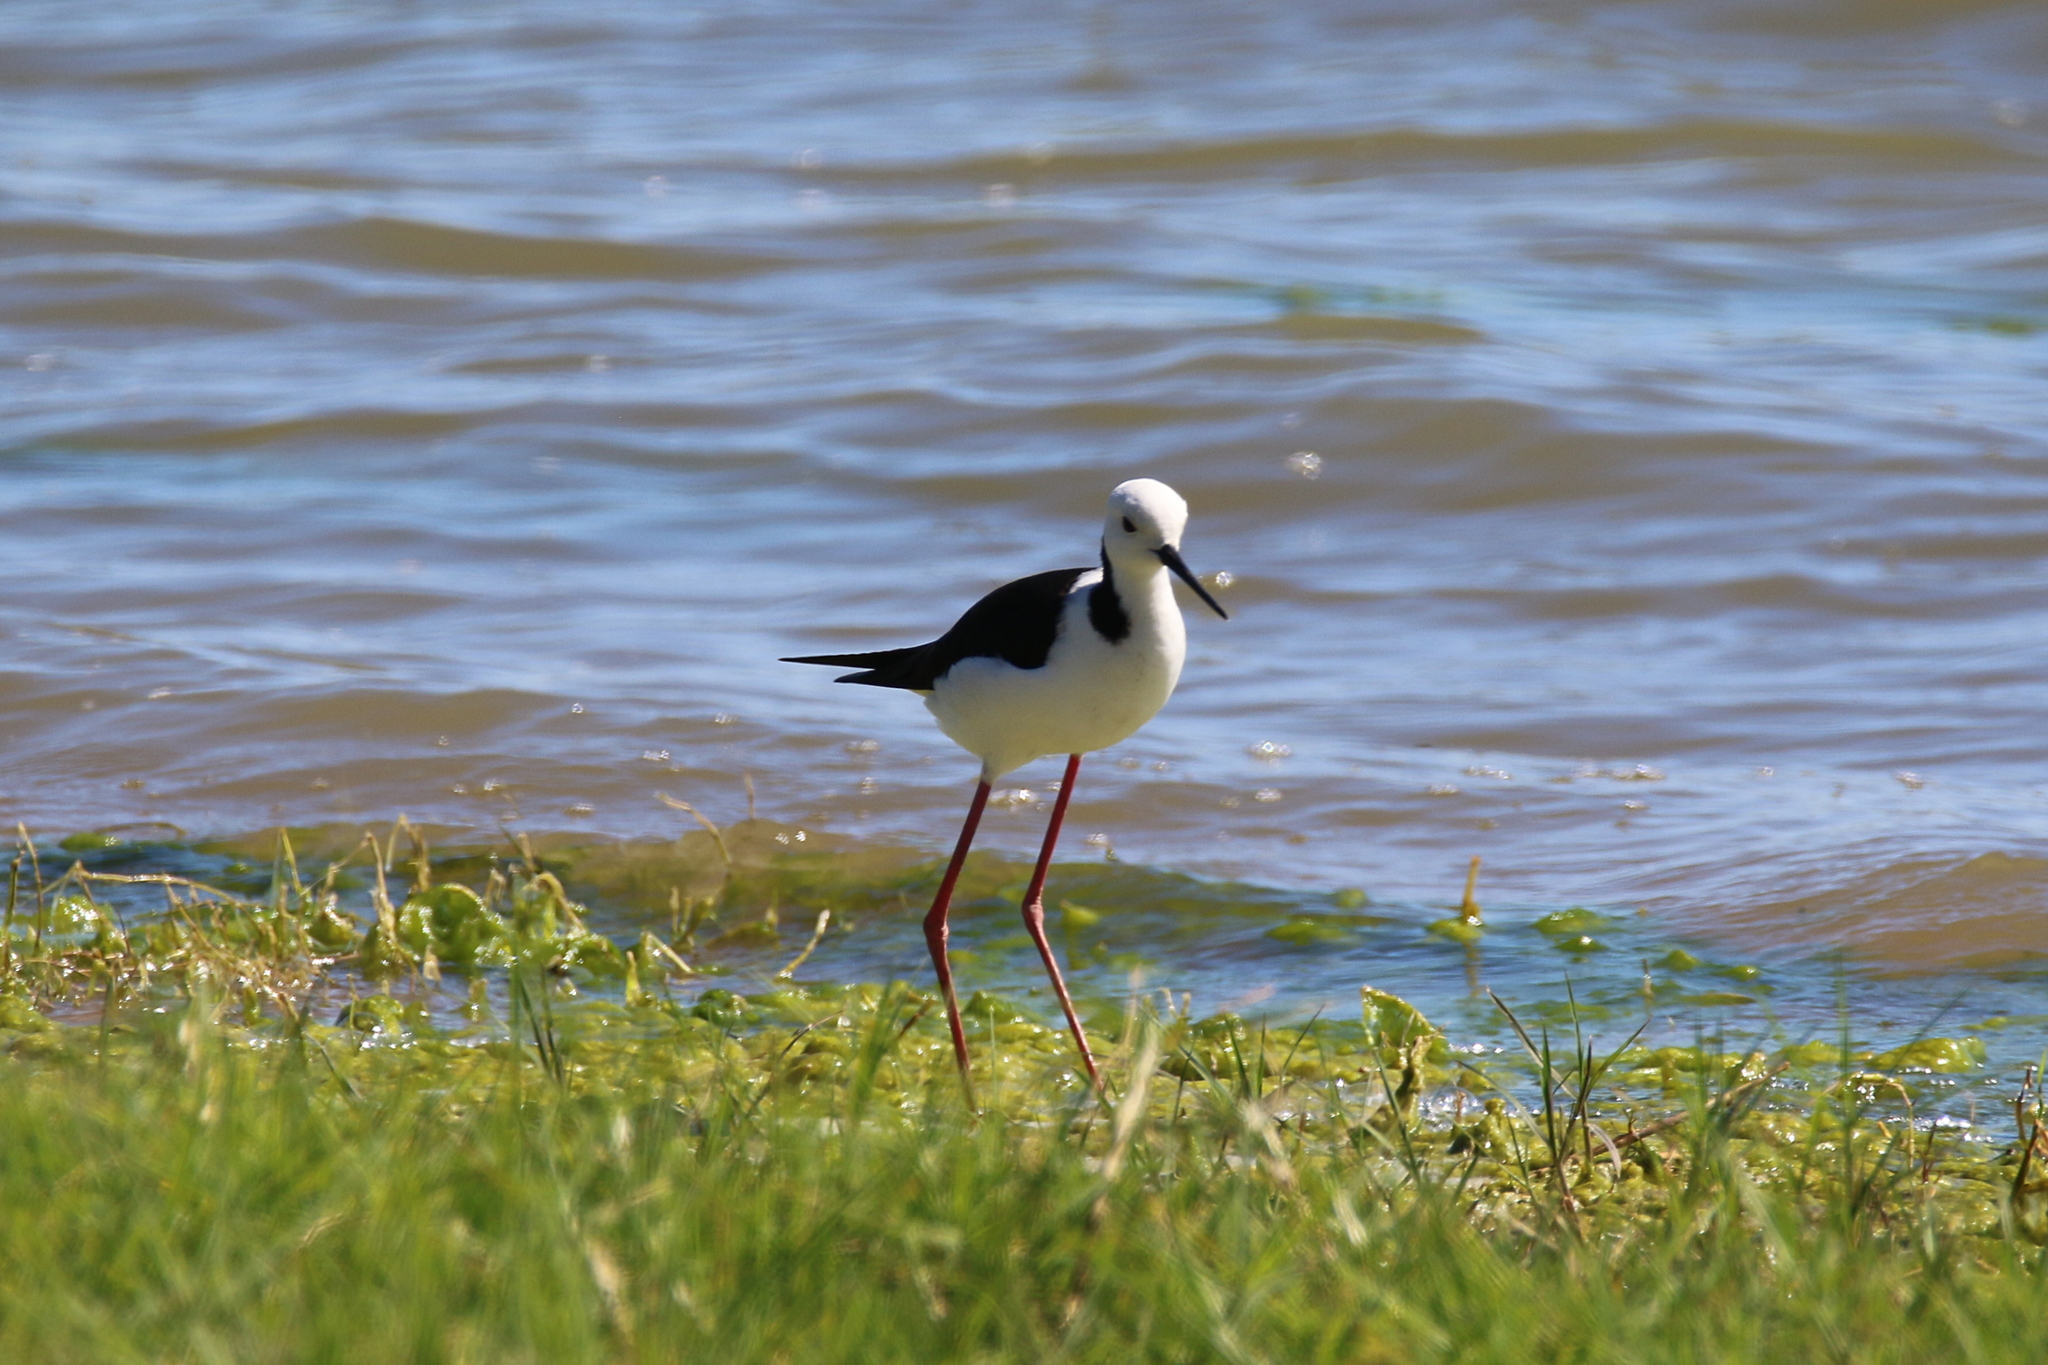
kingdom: Animalia
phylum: Chordata
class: Aves
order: Charadriiformes
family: Recurvirostridae
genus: Himantopus
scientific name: Himantopus leucocephalus
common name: White-headed stilt
